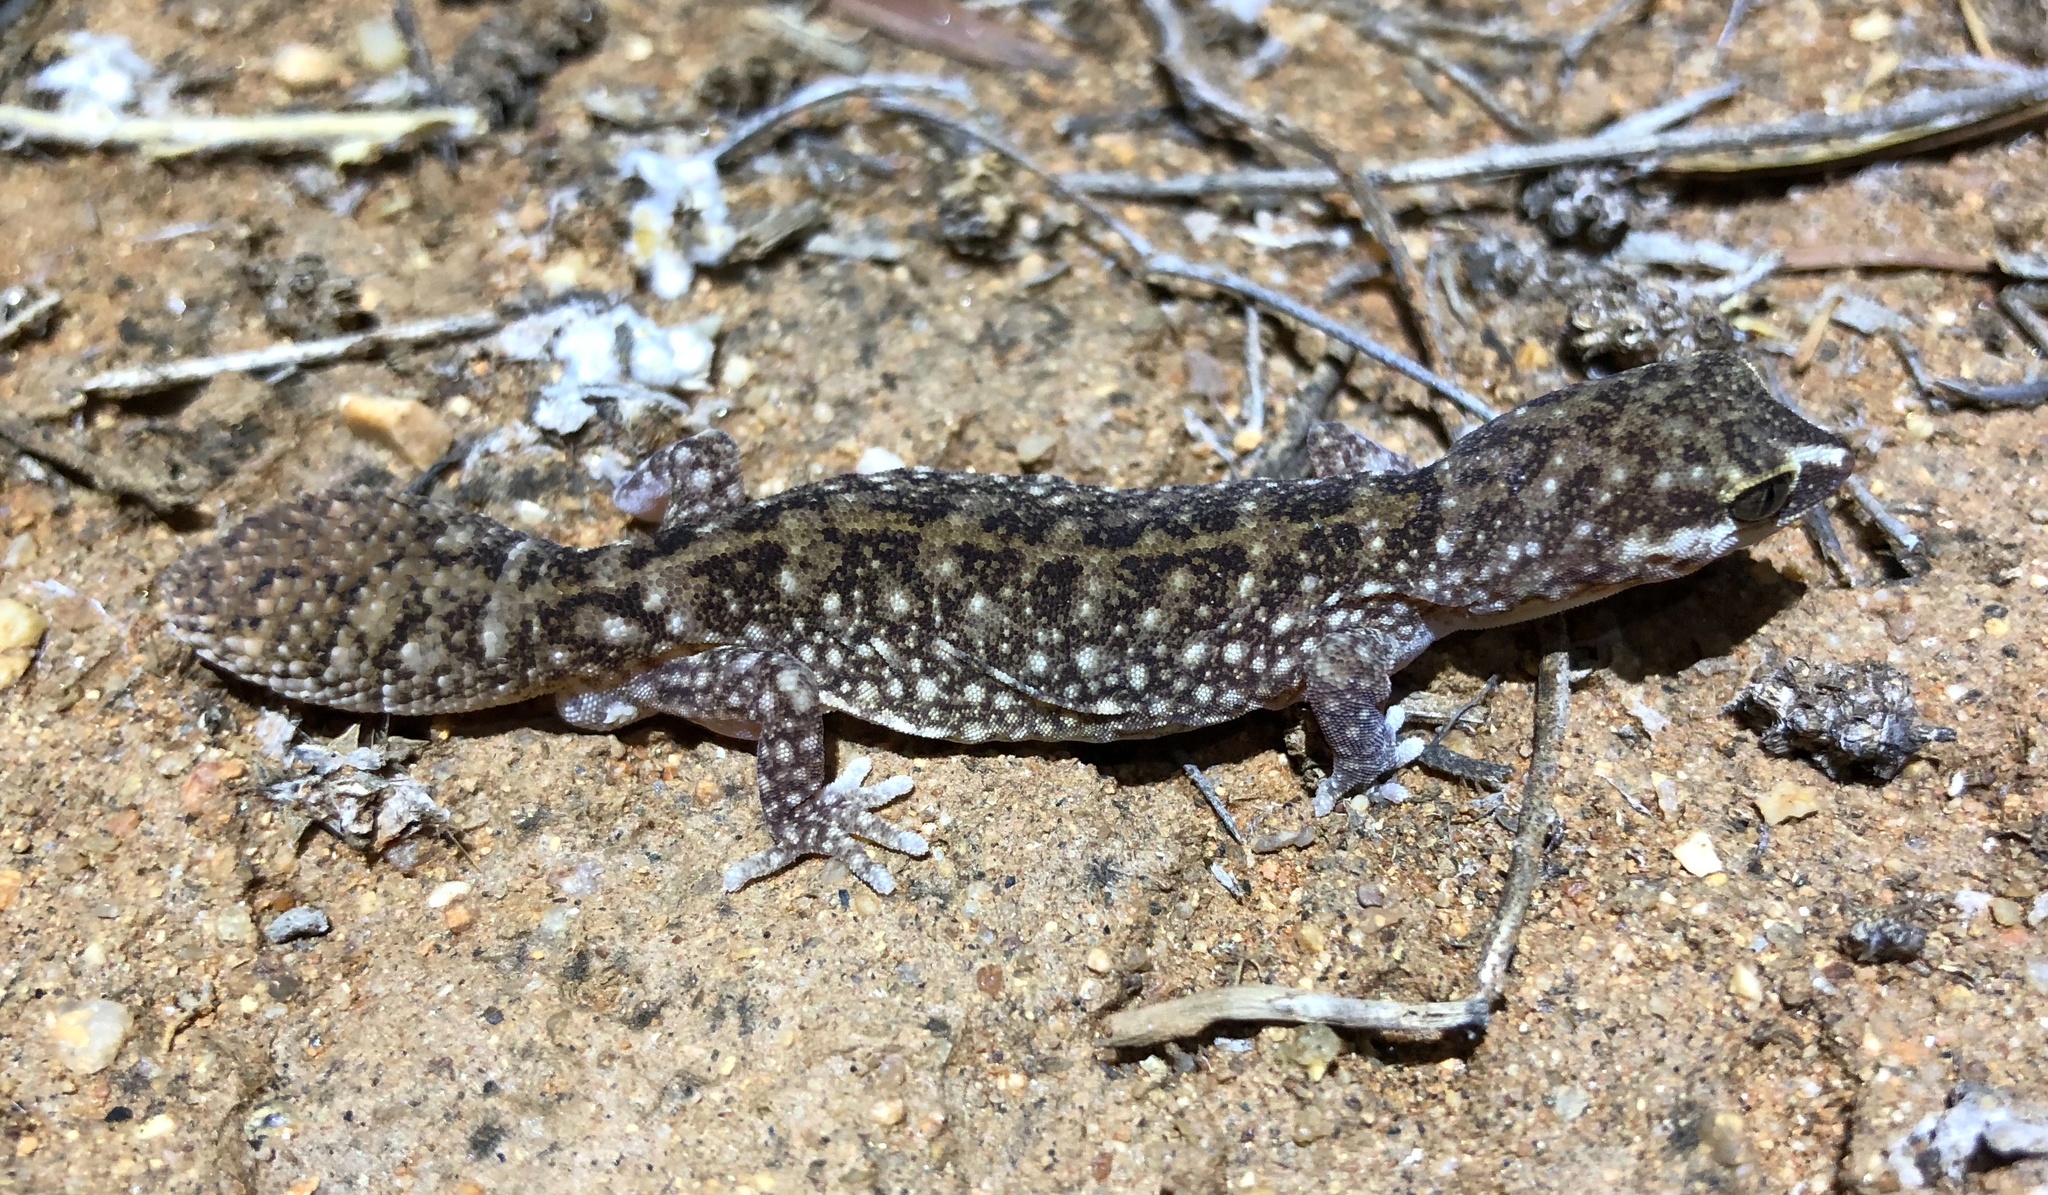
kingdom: Animalia
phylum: Chordata
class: Squamata
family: Diplodactylidae
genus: Diplodactylus
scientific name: Diplodactylus conspicillatus
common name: Burrow-plug gecko
